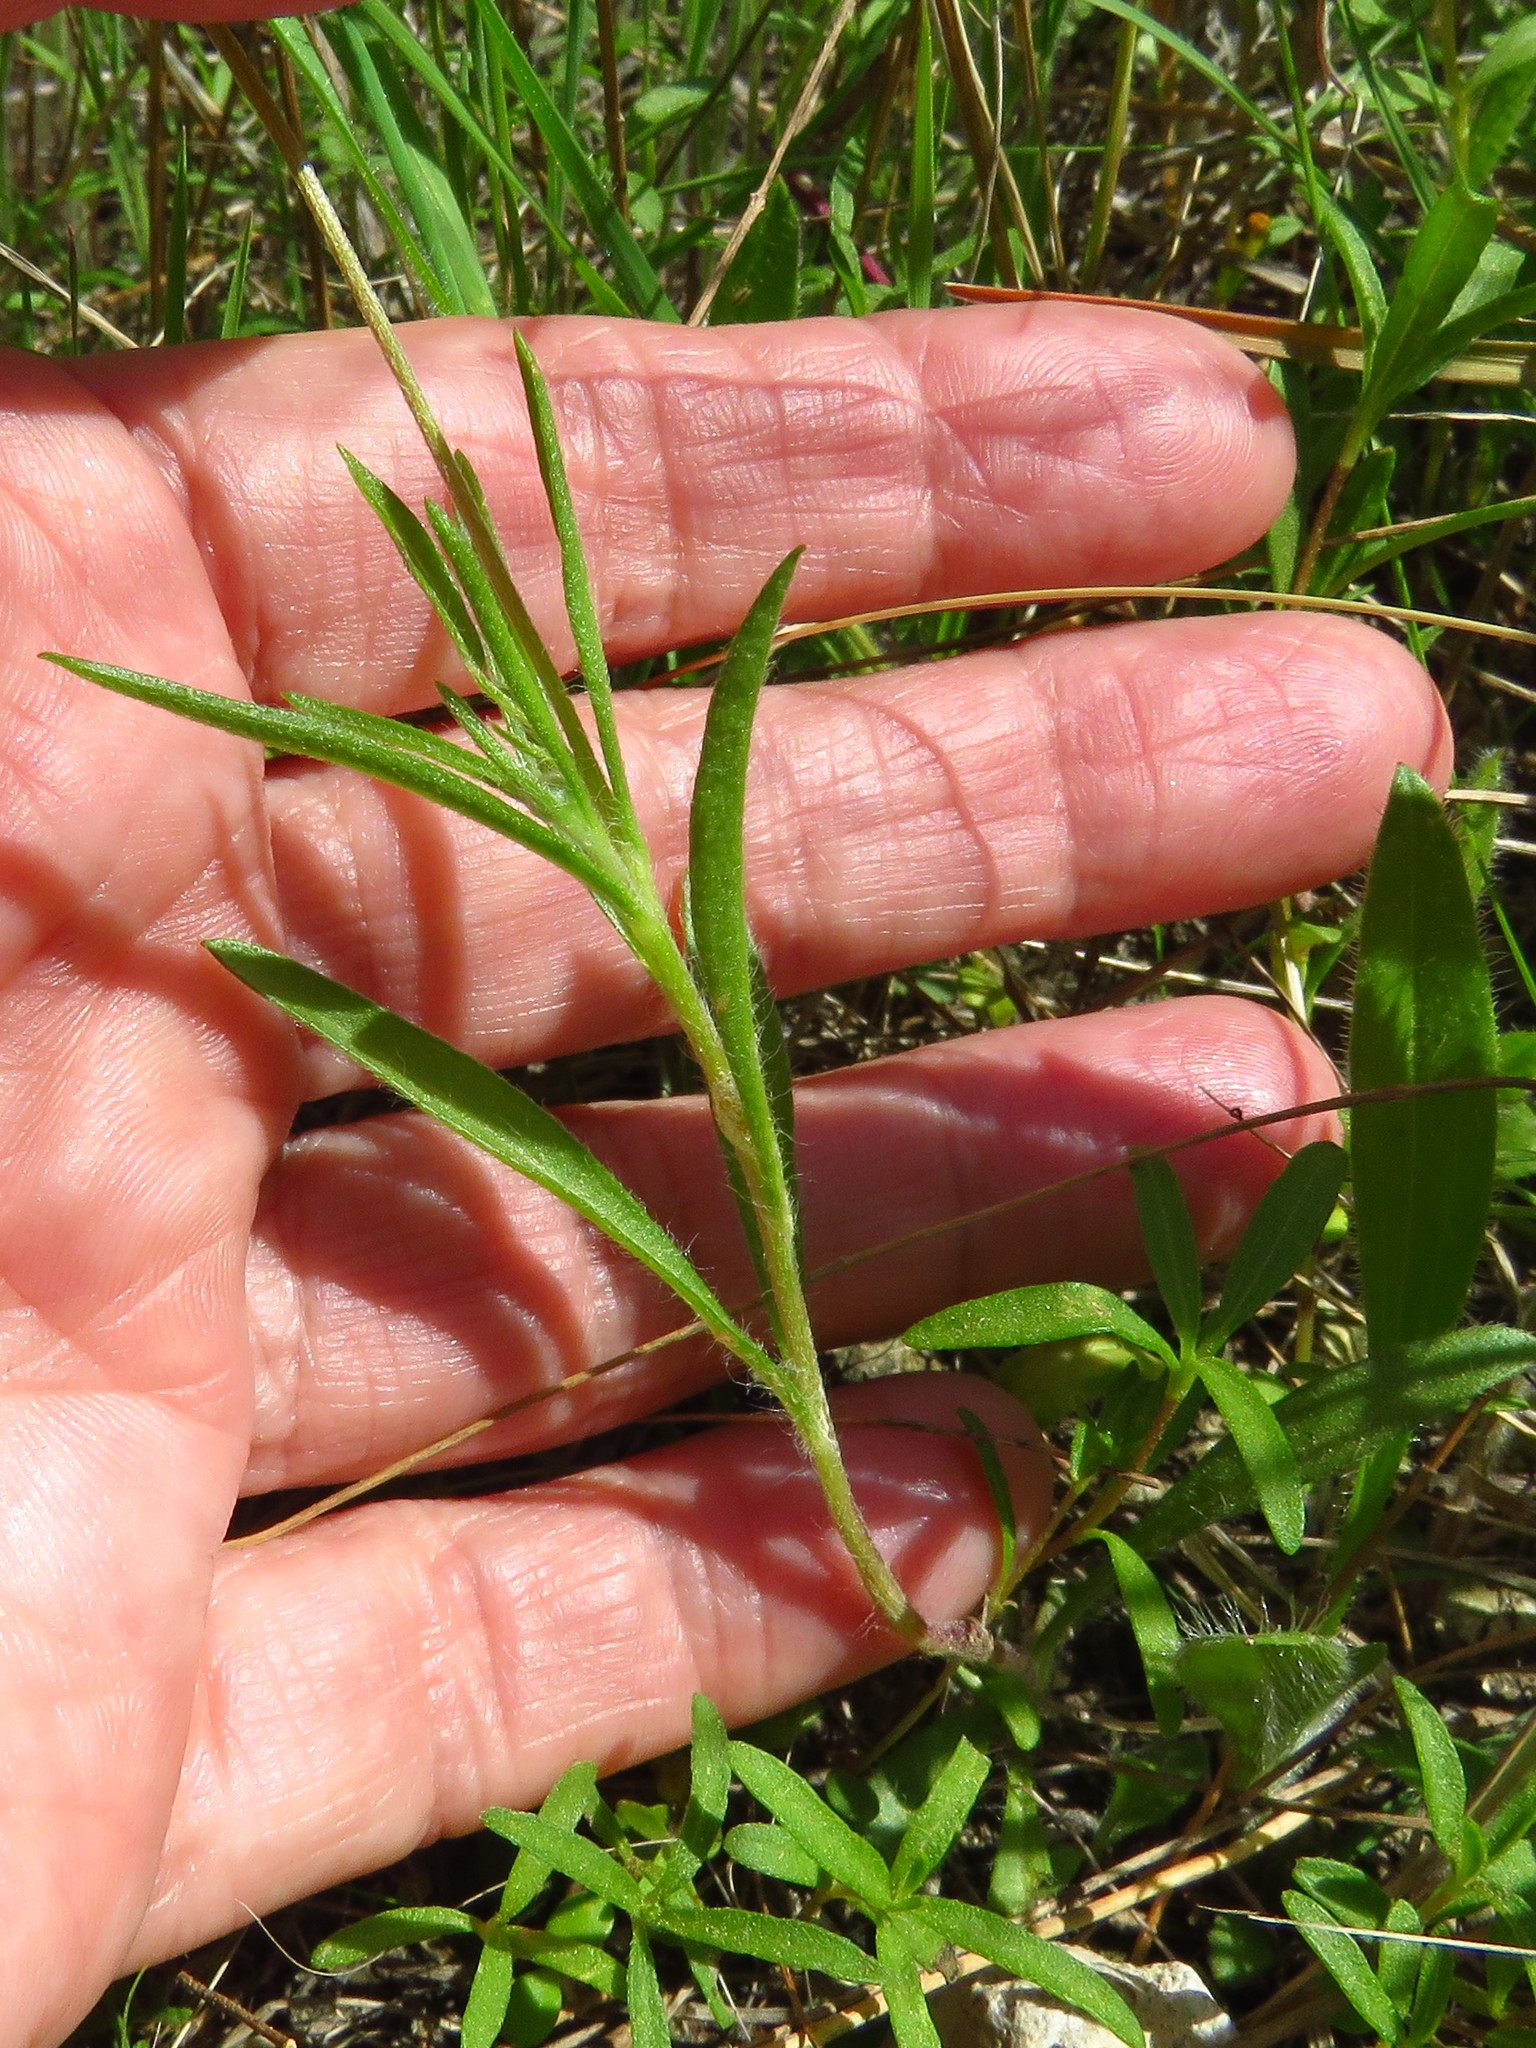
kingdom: Plantae
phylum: Tracheophyta
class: Magnoliopsida
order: Asterales
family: Asteraceae
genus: Tetraneuris
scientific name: Tetraneuris linearifolia
